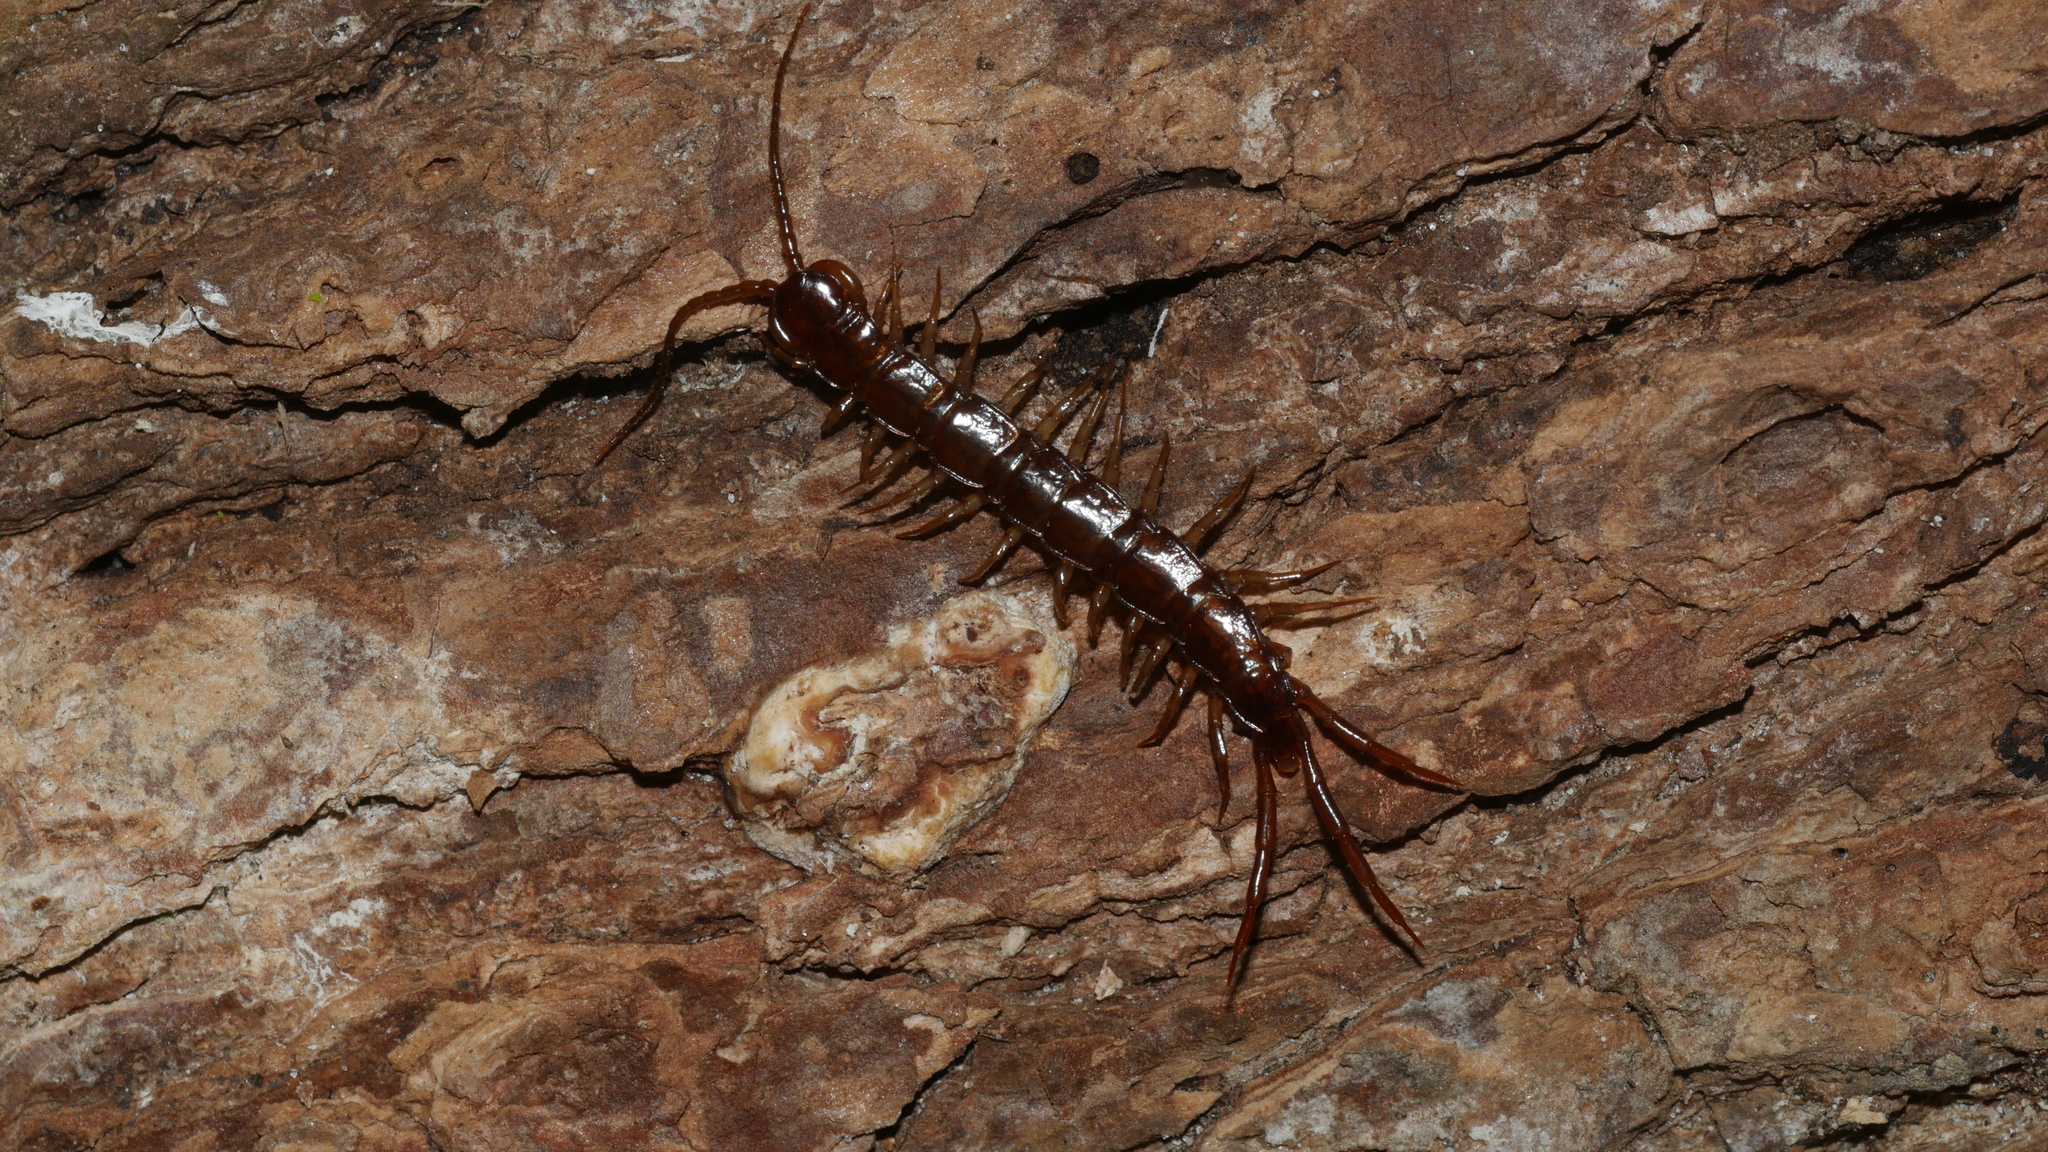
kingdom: Animalia
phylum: Arthropoda
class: Chilopoda
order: Lithobiomorpha
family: Lithobiidae
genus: Lithobius
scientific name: Lithobius forficatus
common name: Centipede
